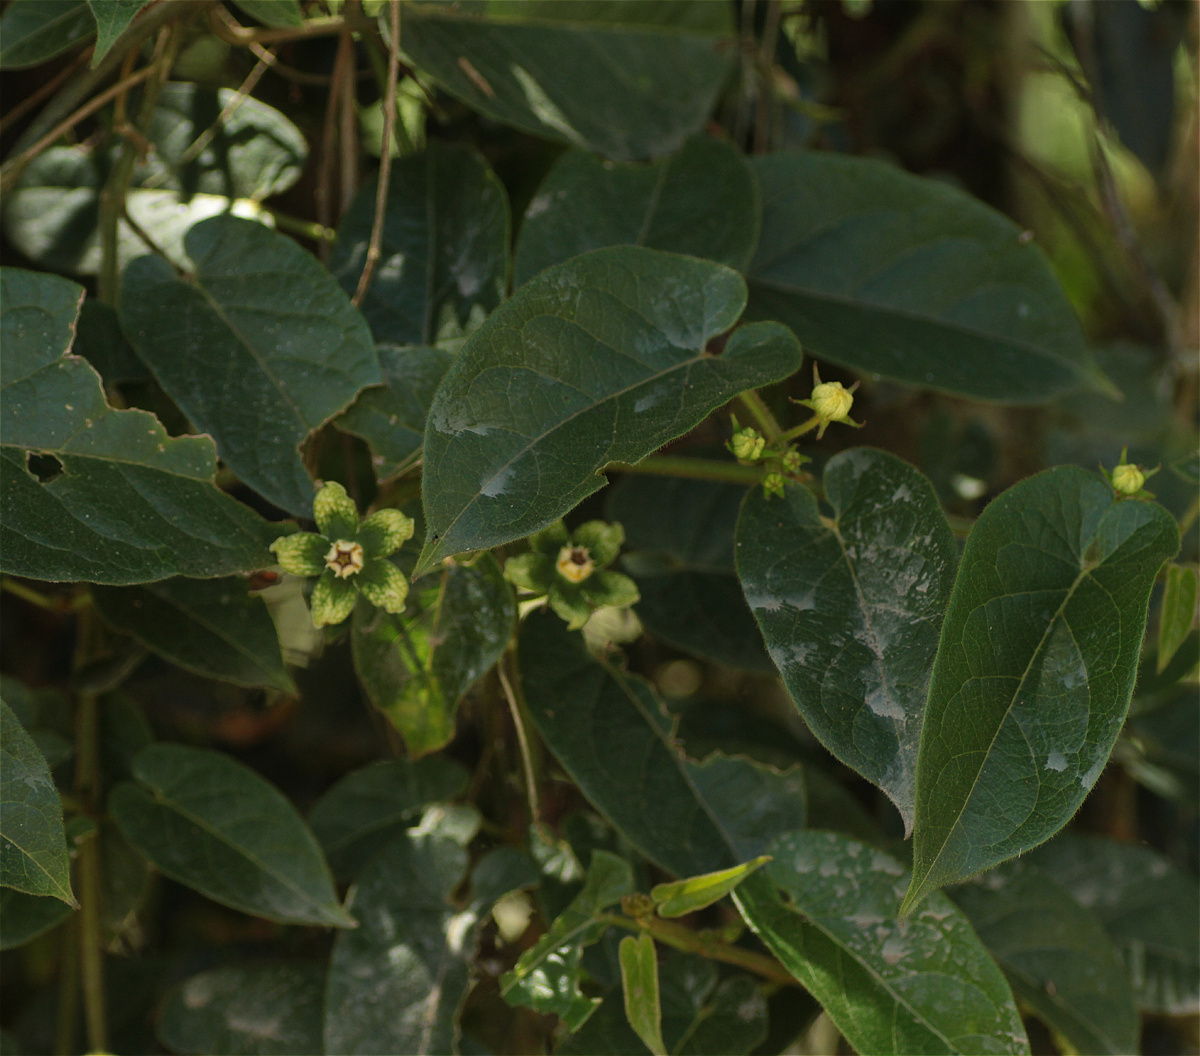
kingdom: Plantae
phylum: Tracheophyta
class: Magnoliopsida
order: Gentianales
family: Apocynaceae
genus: Gonolobus
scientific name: Gonolobus xanthotrichus
